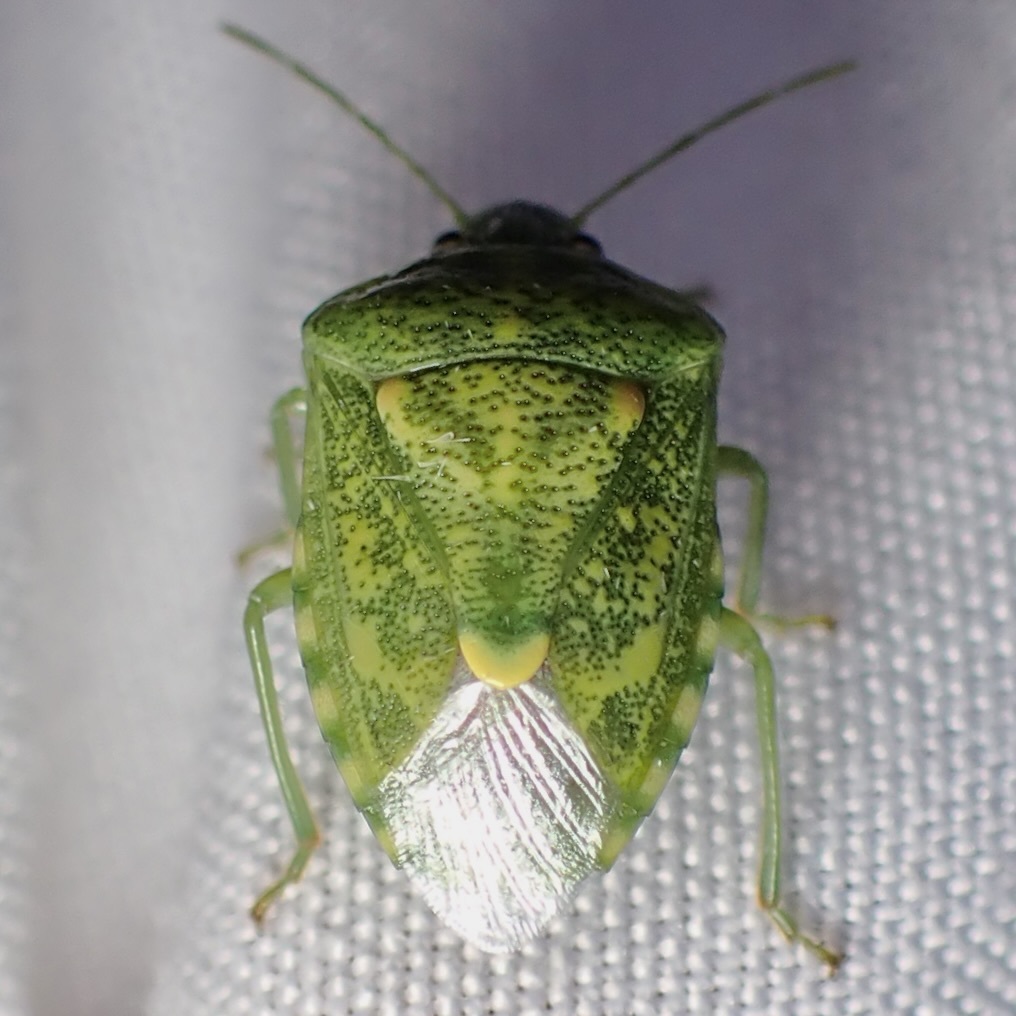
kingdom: Animalia
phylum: Arthropoda
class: Insecta
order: Hemiptera
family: Pentatomidae
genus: Banasa
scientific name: Banasa euchlora
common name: Cedar berry bug
